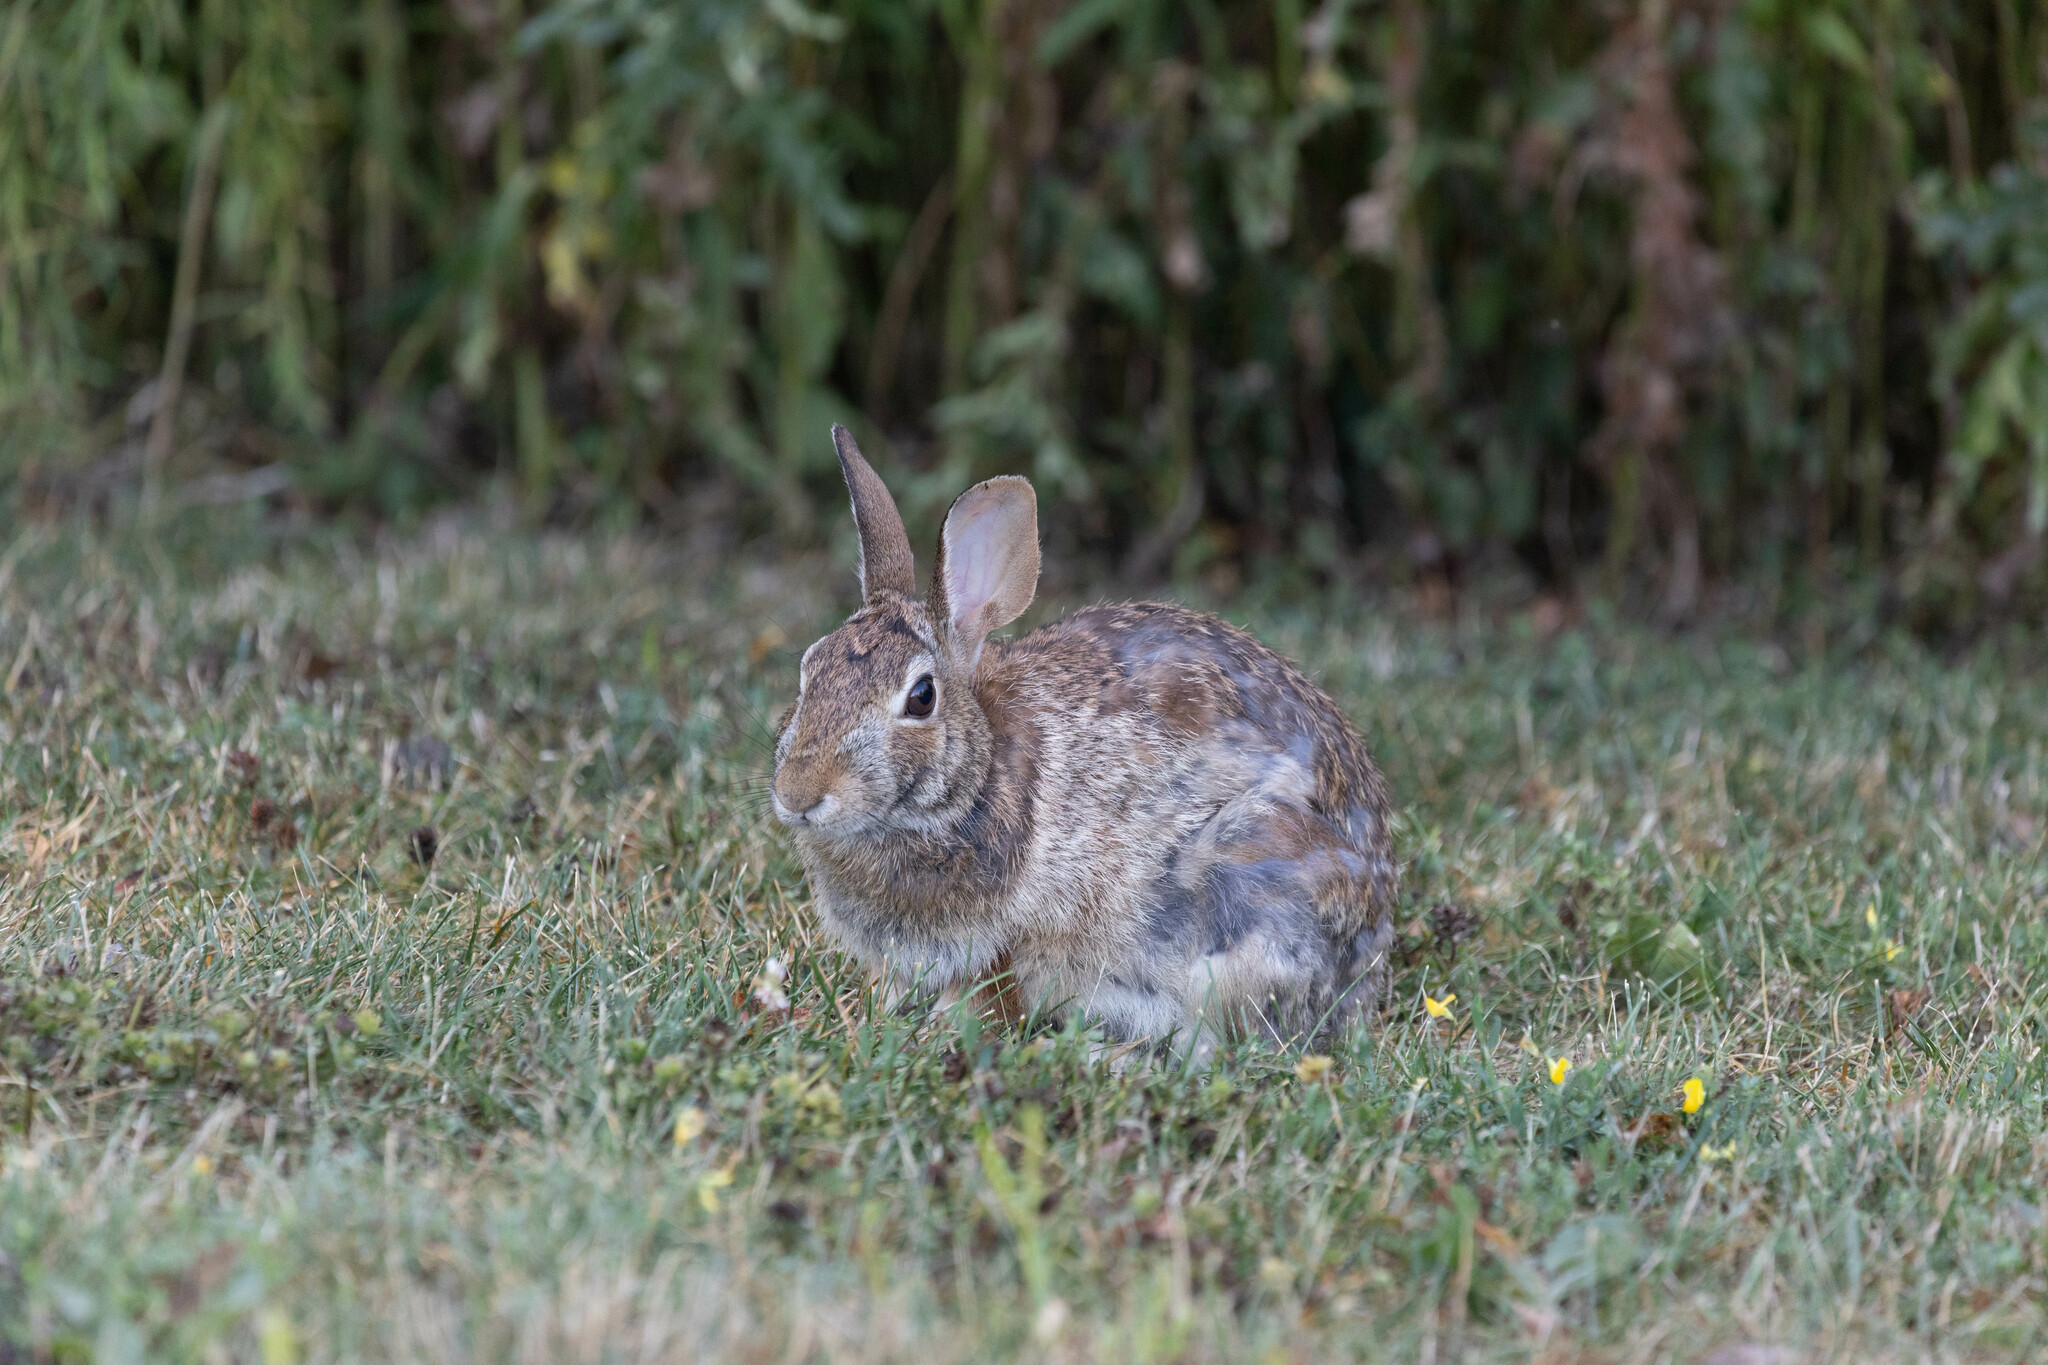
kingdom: Animalia
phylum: Chordata
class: Mammalia
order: Lagomorpha
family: Leporidae
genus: Sylvilagus
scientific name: Sylvilagus floridanus
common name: Eastern cottontail
